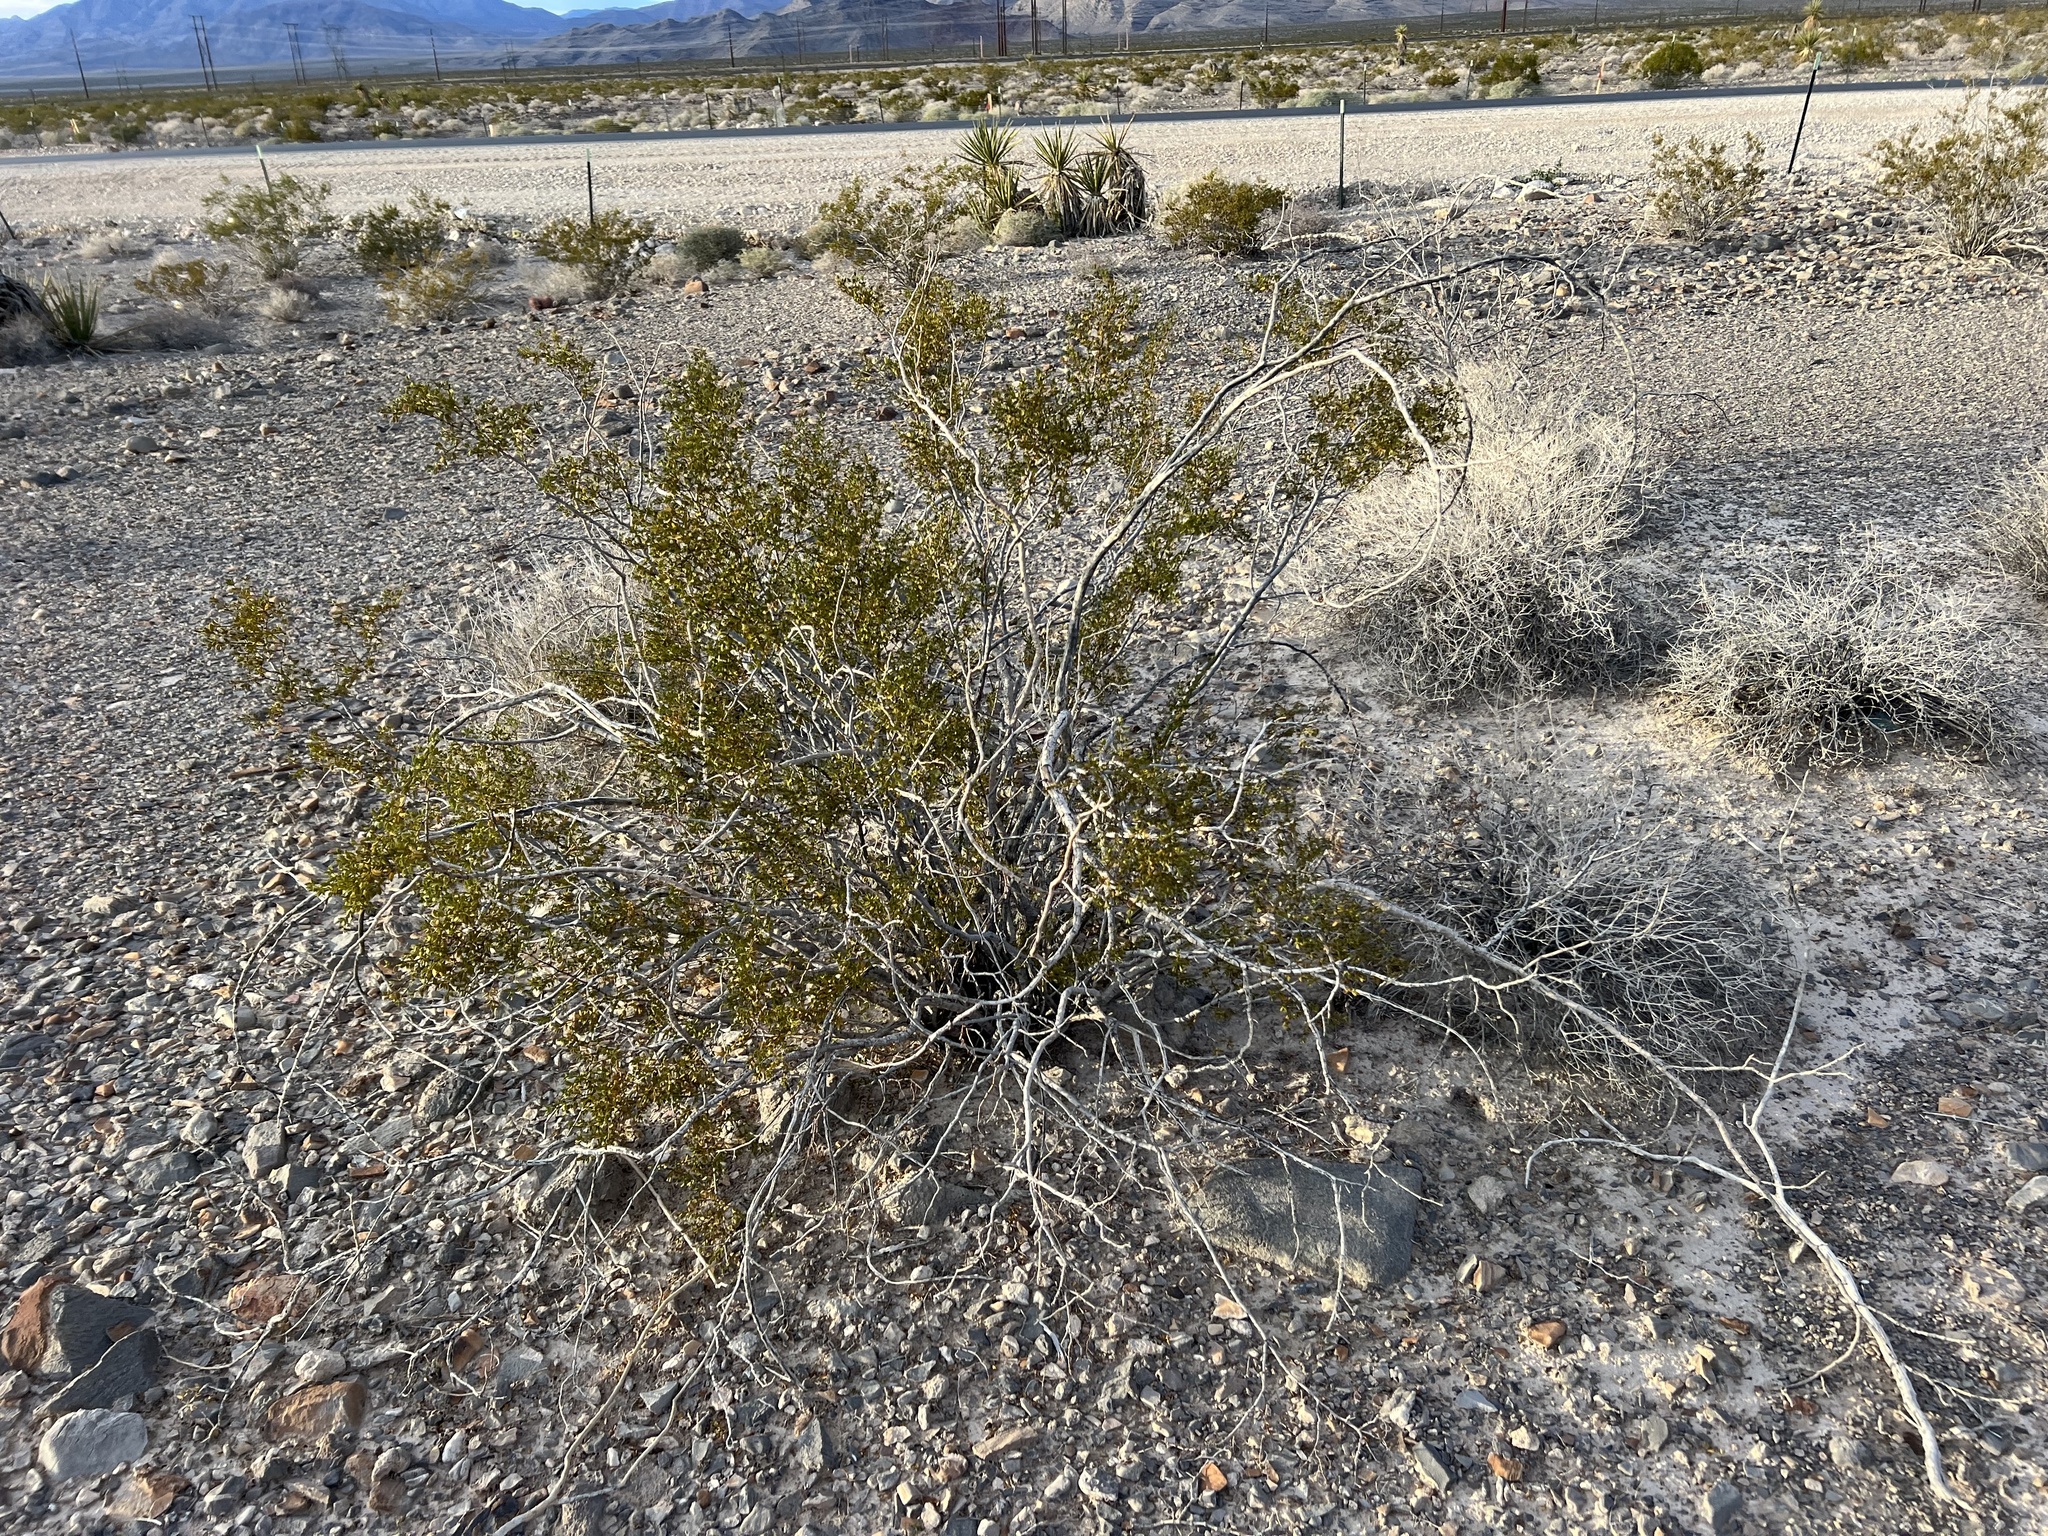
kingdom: Plantae
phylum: Tracheophyta
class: Magnoliopsida
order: Zygophyllales
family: Zygophyllaceae
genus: Larrea
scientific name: Larrea tridentata
